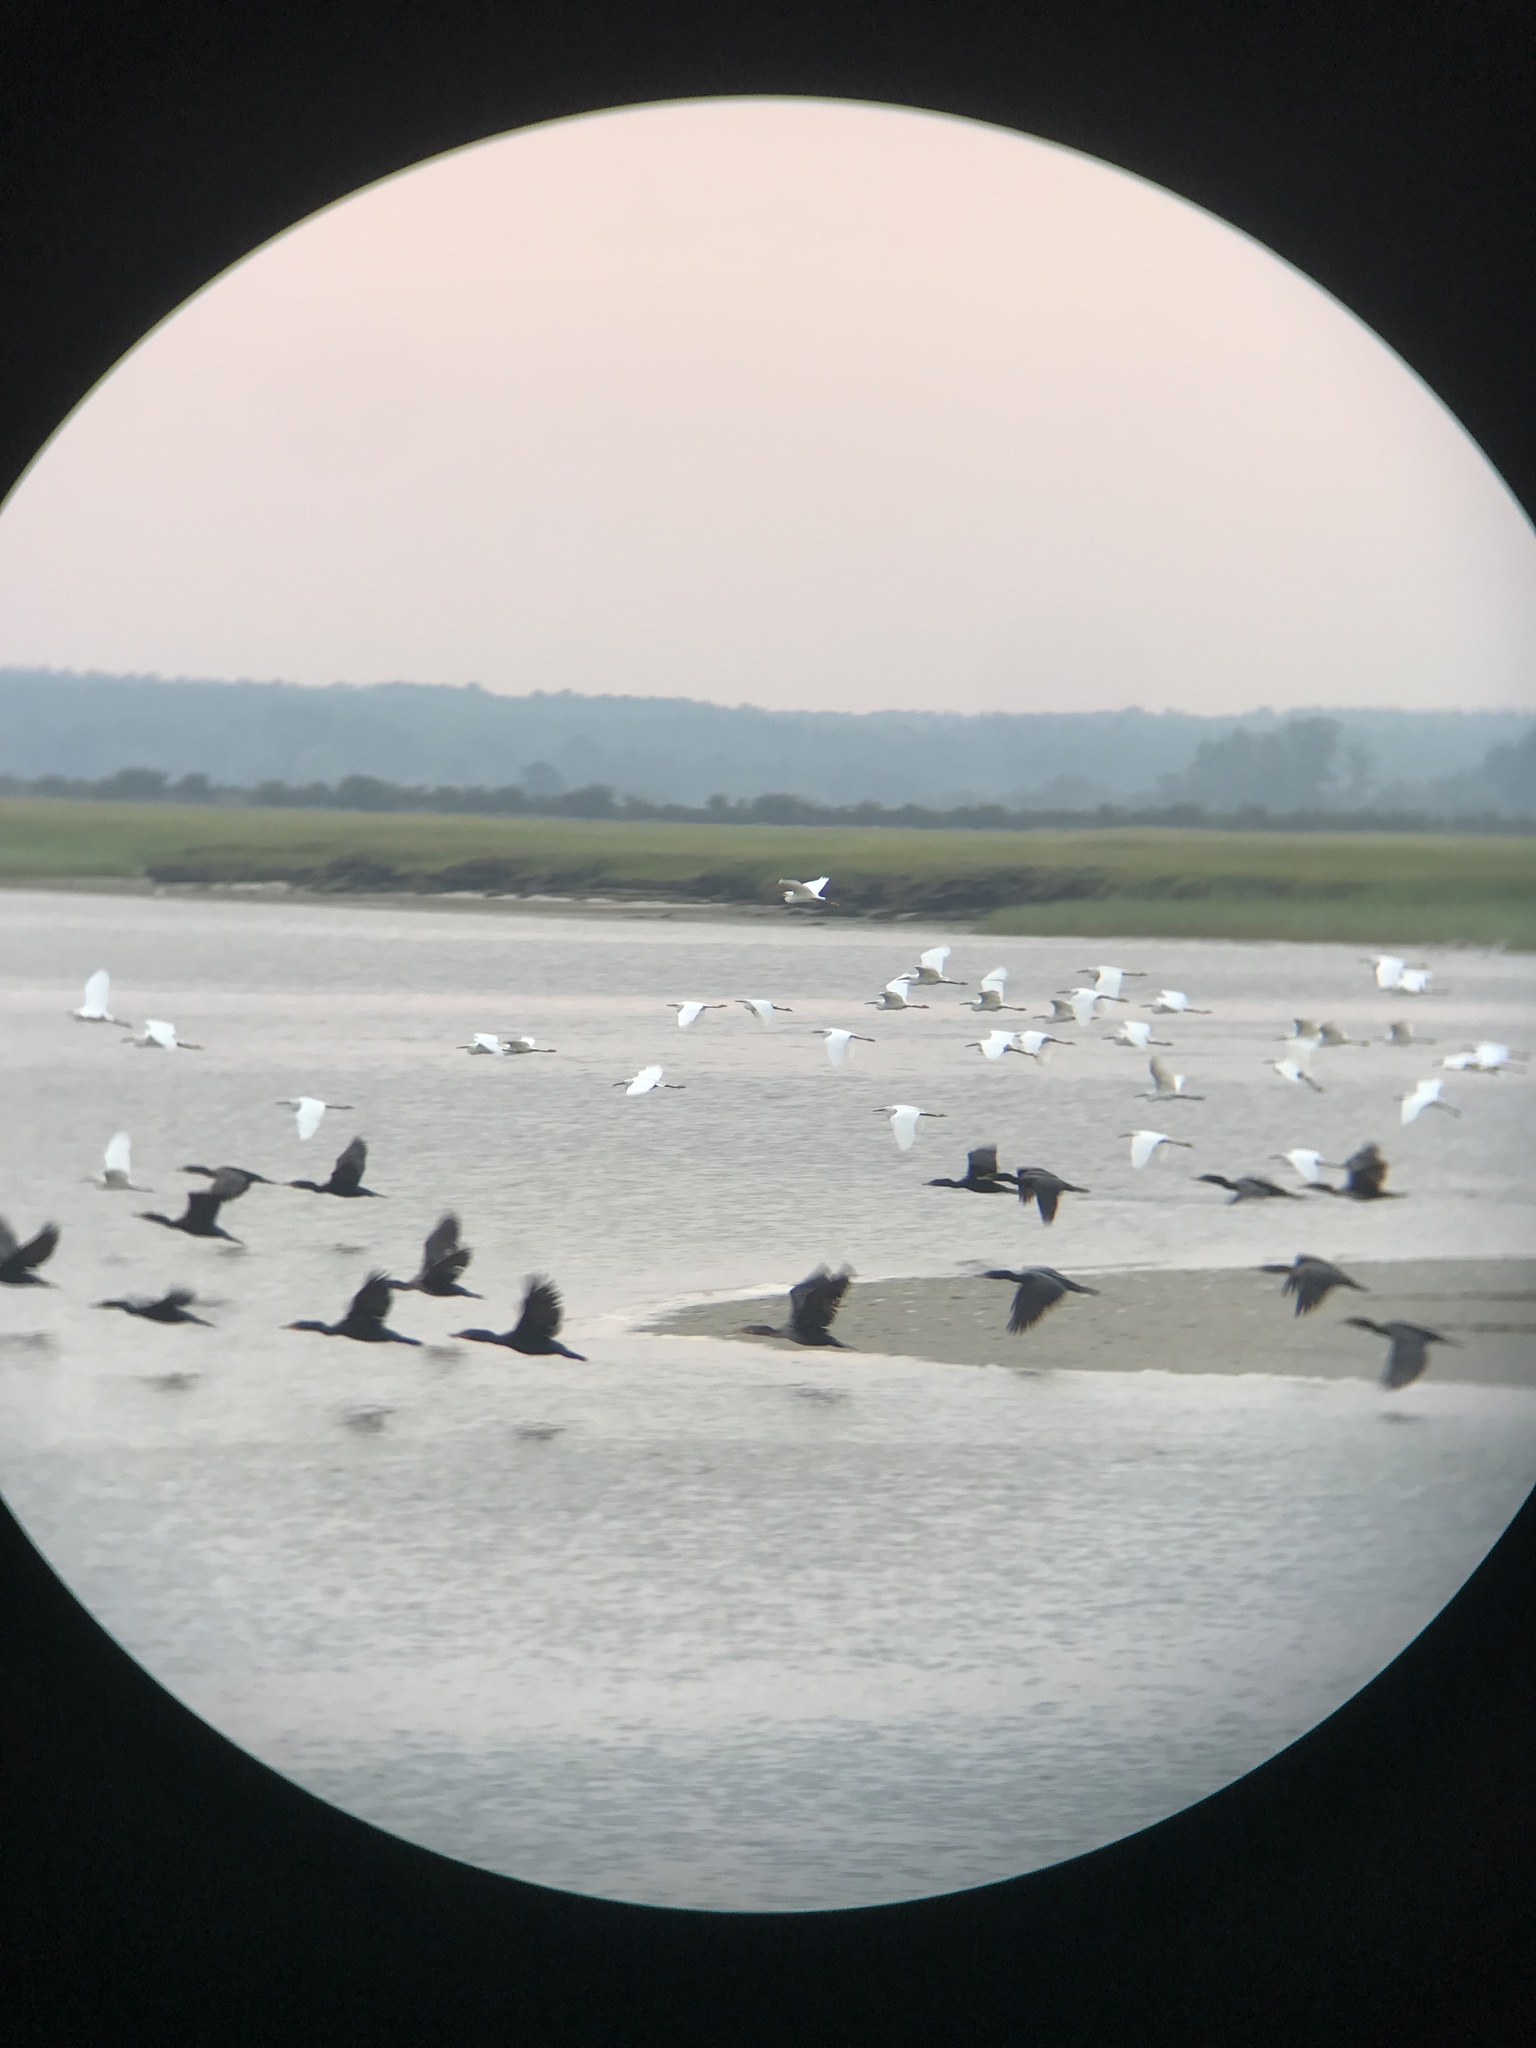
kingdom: Animalia
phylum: Chordata
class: Aves
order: Pelecaniformes
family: Ardeidae
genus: Egretta
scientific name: Egretta thula
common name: Snowy egret
